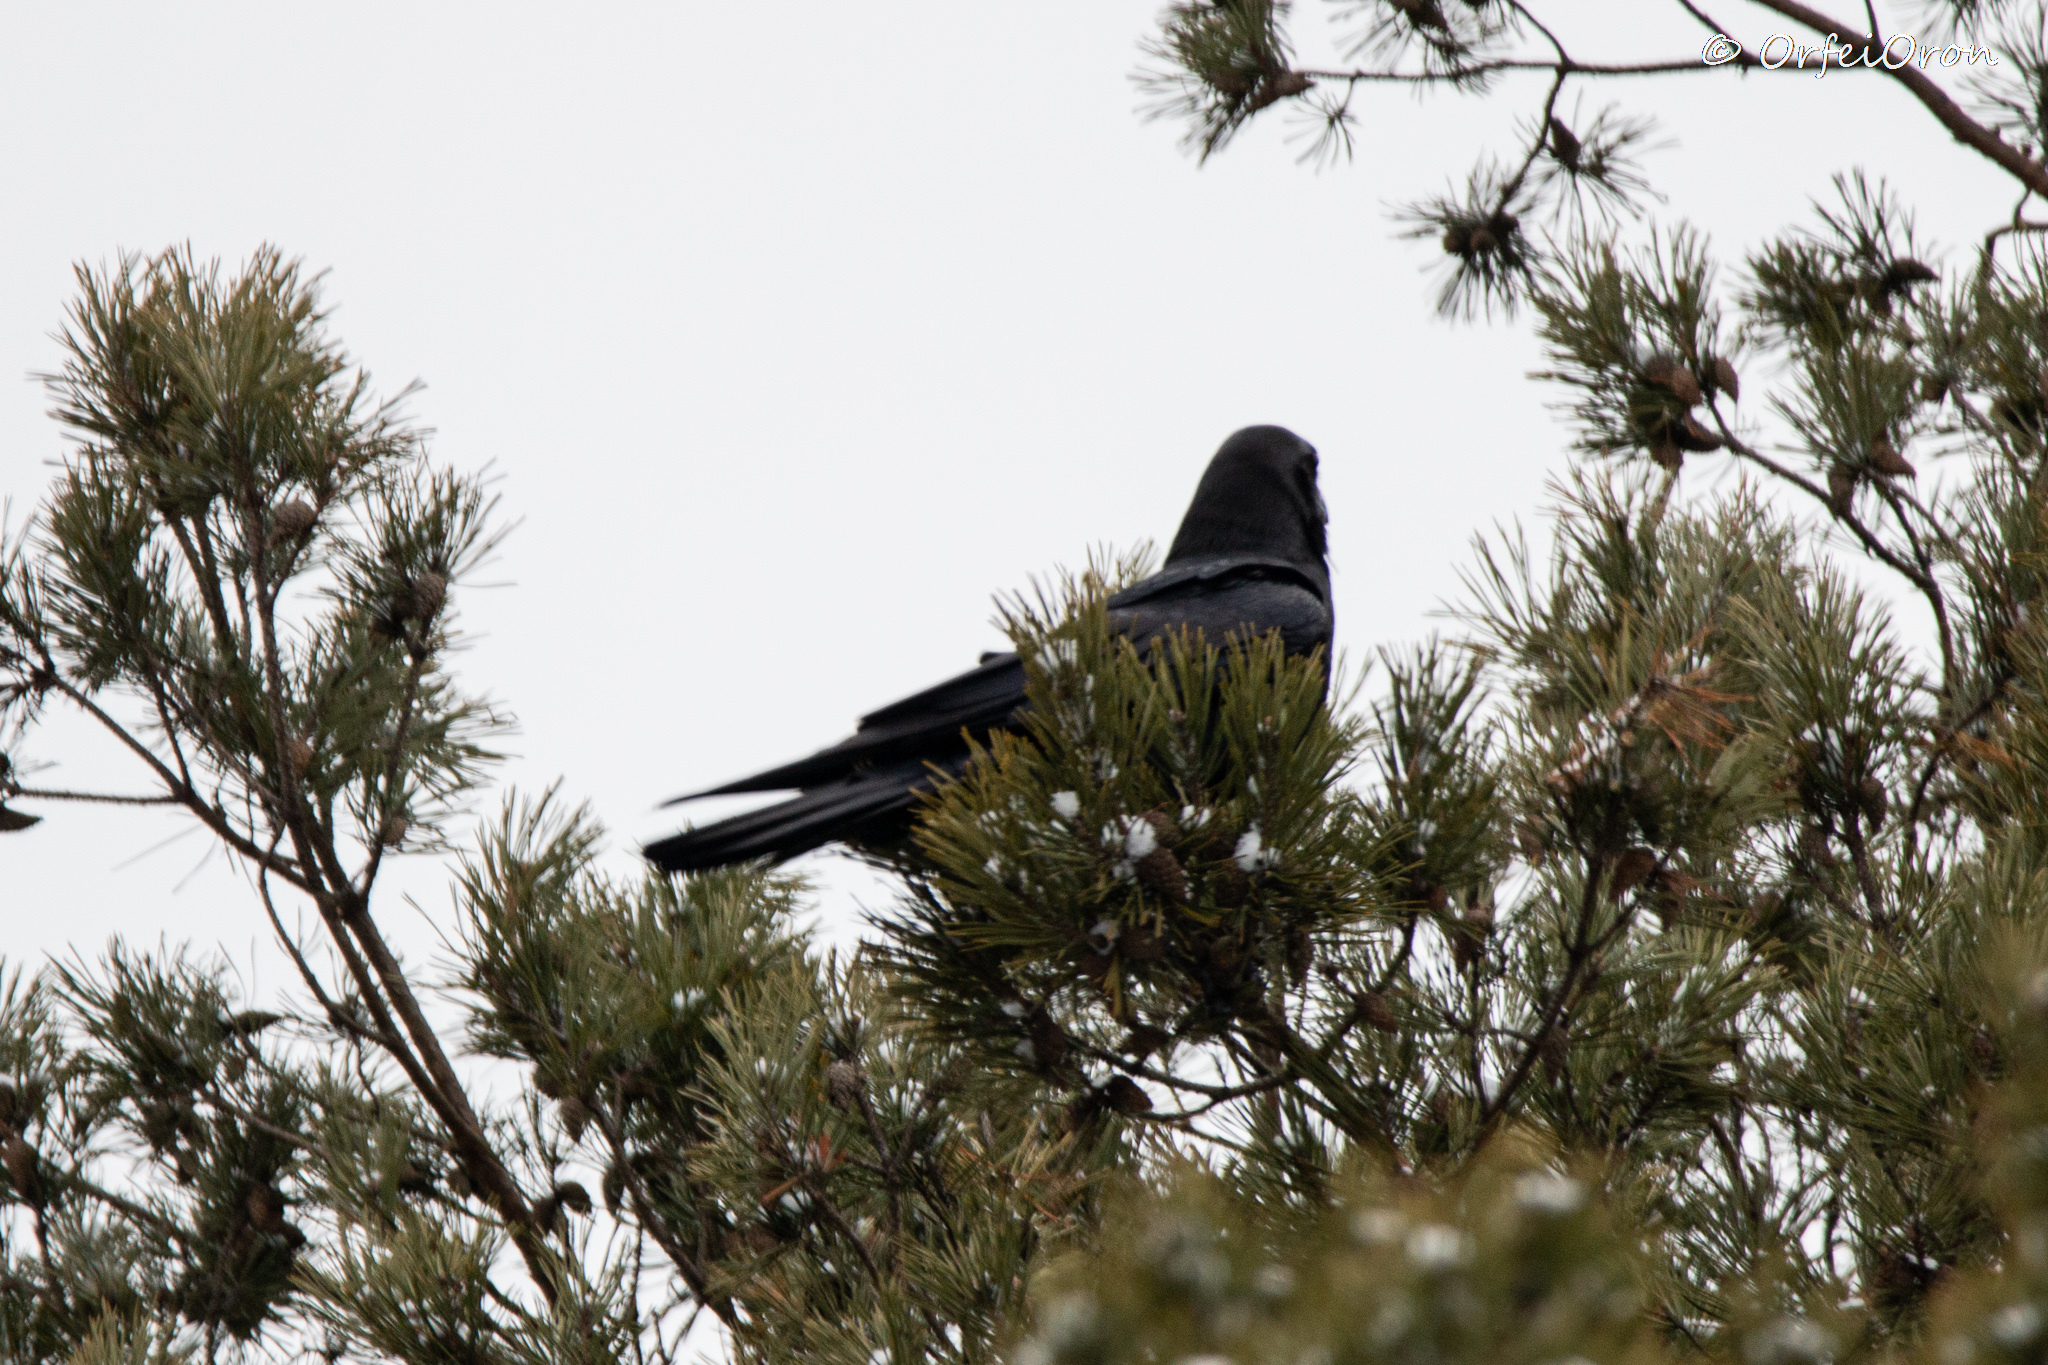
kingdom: Animalia
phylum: Chordata
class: Aves
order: Passeriformes
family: Corvidae
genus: Corvus
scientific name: Corvus corax
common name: Common raven
